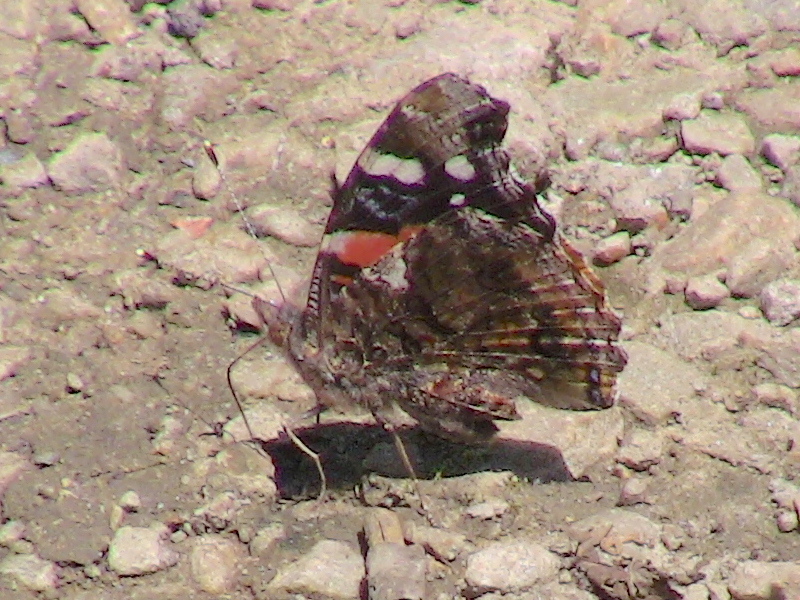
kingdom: Animalia
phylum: Arthropoda
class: Insecta
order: Lepidoptera
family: Nymphalidae
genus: Vanessa
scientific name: Vanessa atalanta
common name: Red admiral
